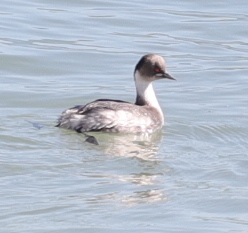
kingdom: Animalia
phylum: Chordata
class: Aves
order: Podicipediformes
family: Podicipedidae
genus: Podiceps
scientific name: Podiceps occipitalis
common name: Silvery grebe
